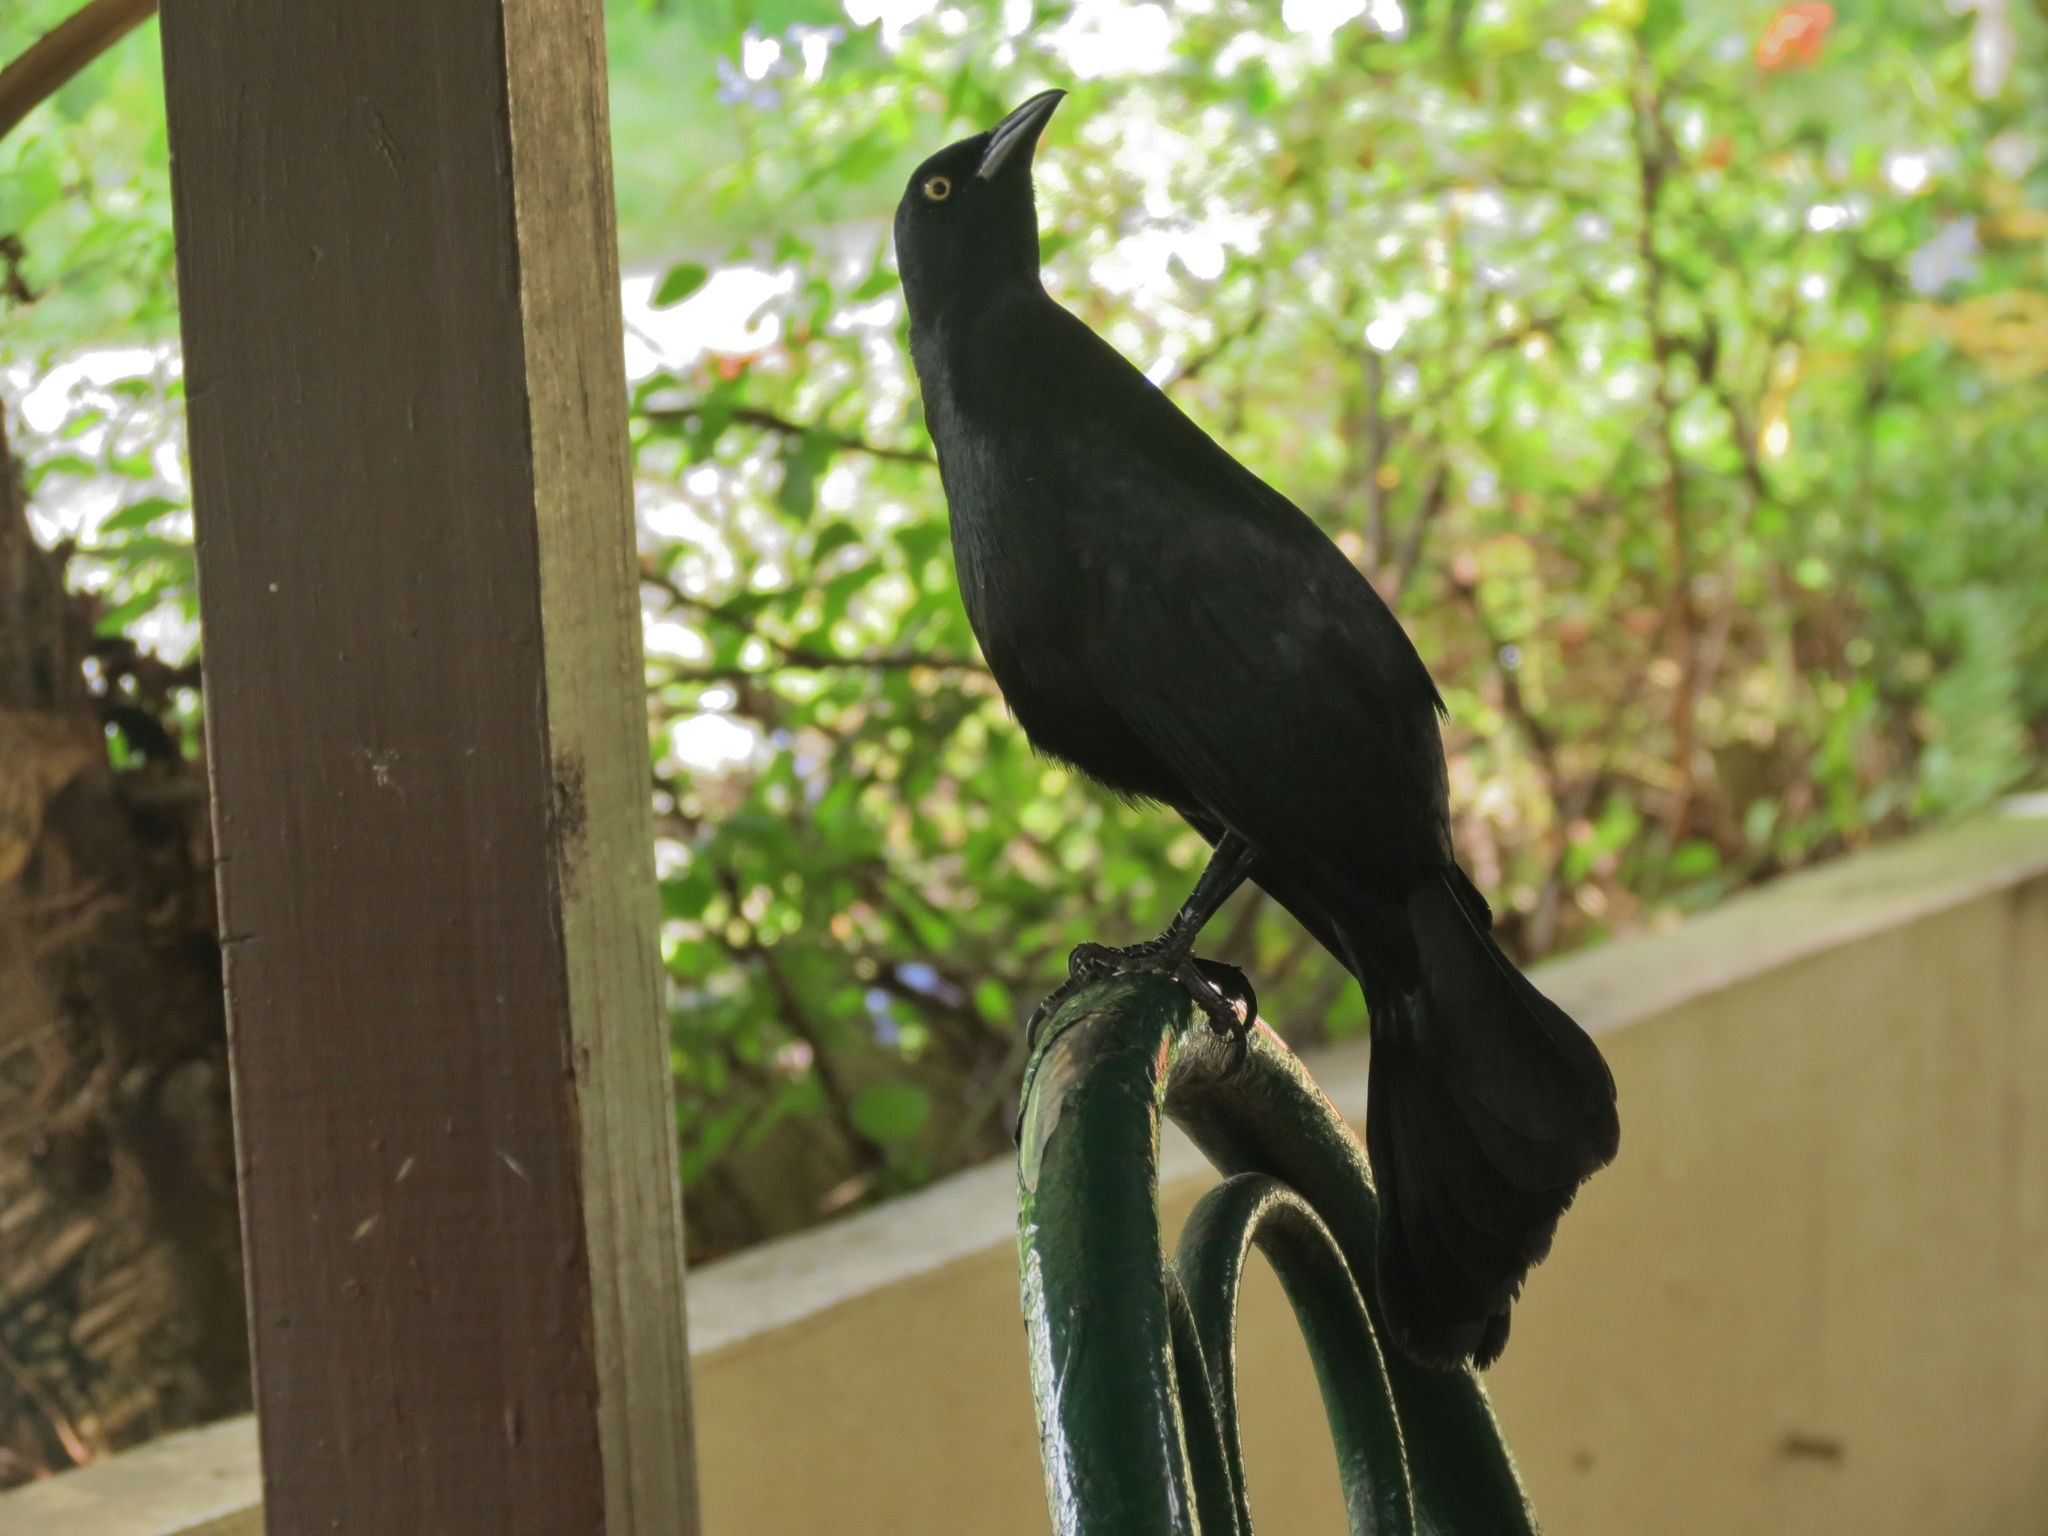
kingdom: Animalia
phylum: Chordata
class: Aves
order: Passeriformes
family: Icteridae
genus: Quiscalus
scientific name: Quiscalus niger
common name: Greater antillean grackle
